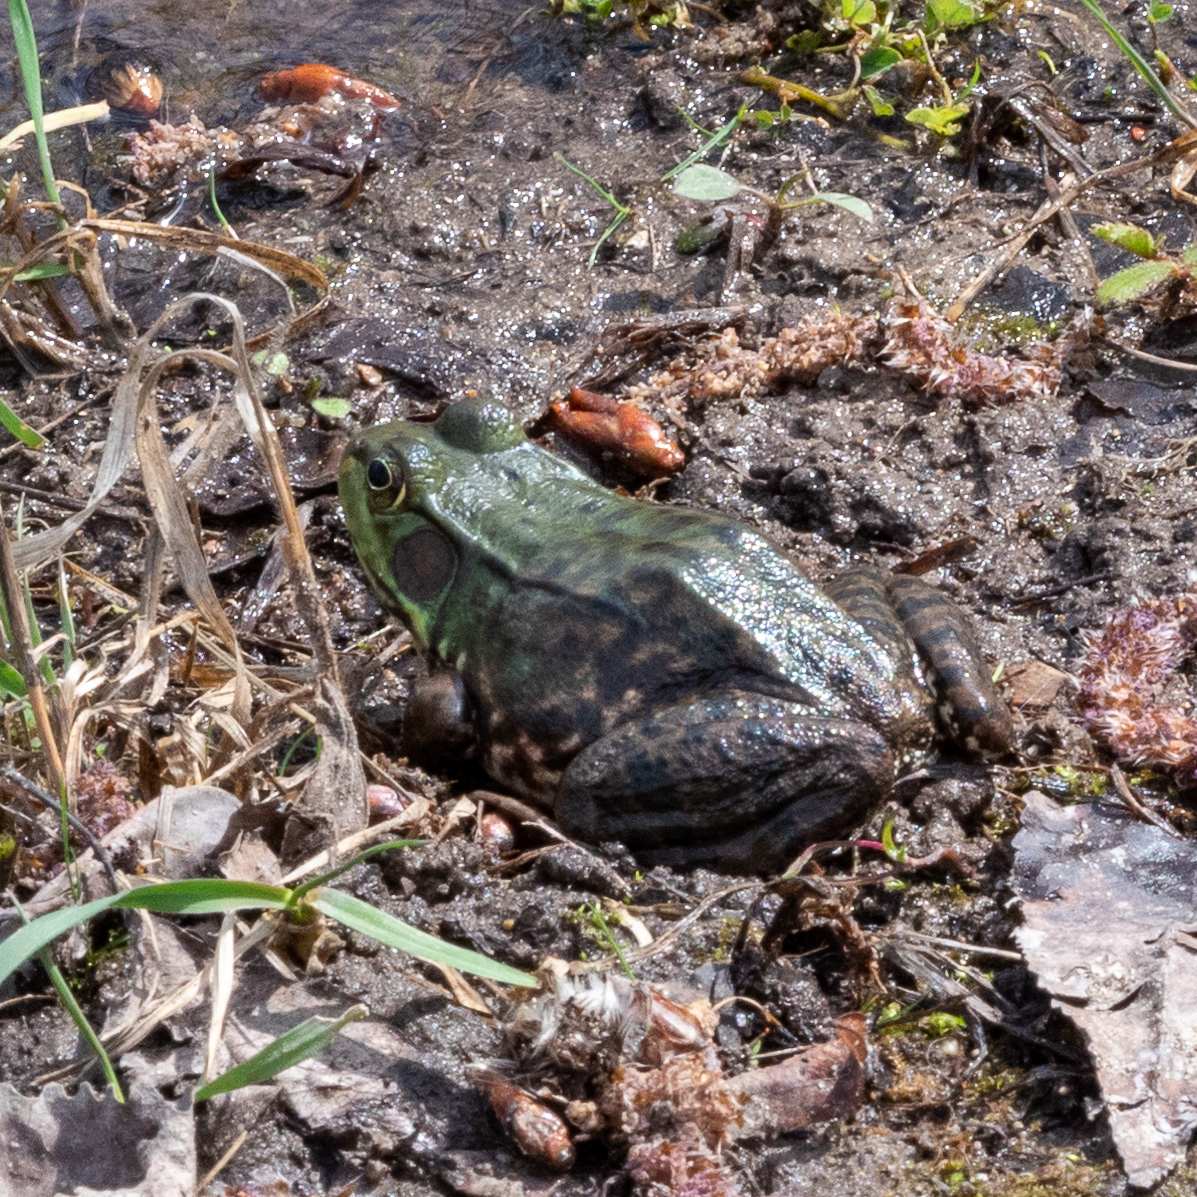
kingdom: Animalia
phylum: Chordata
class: Amphibia
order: Anura
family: Ranidae
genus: Lithobates
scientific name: Lithobates clamitans
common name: Green frog
